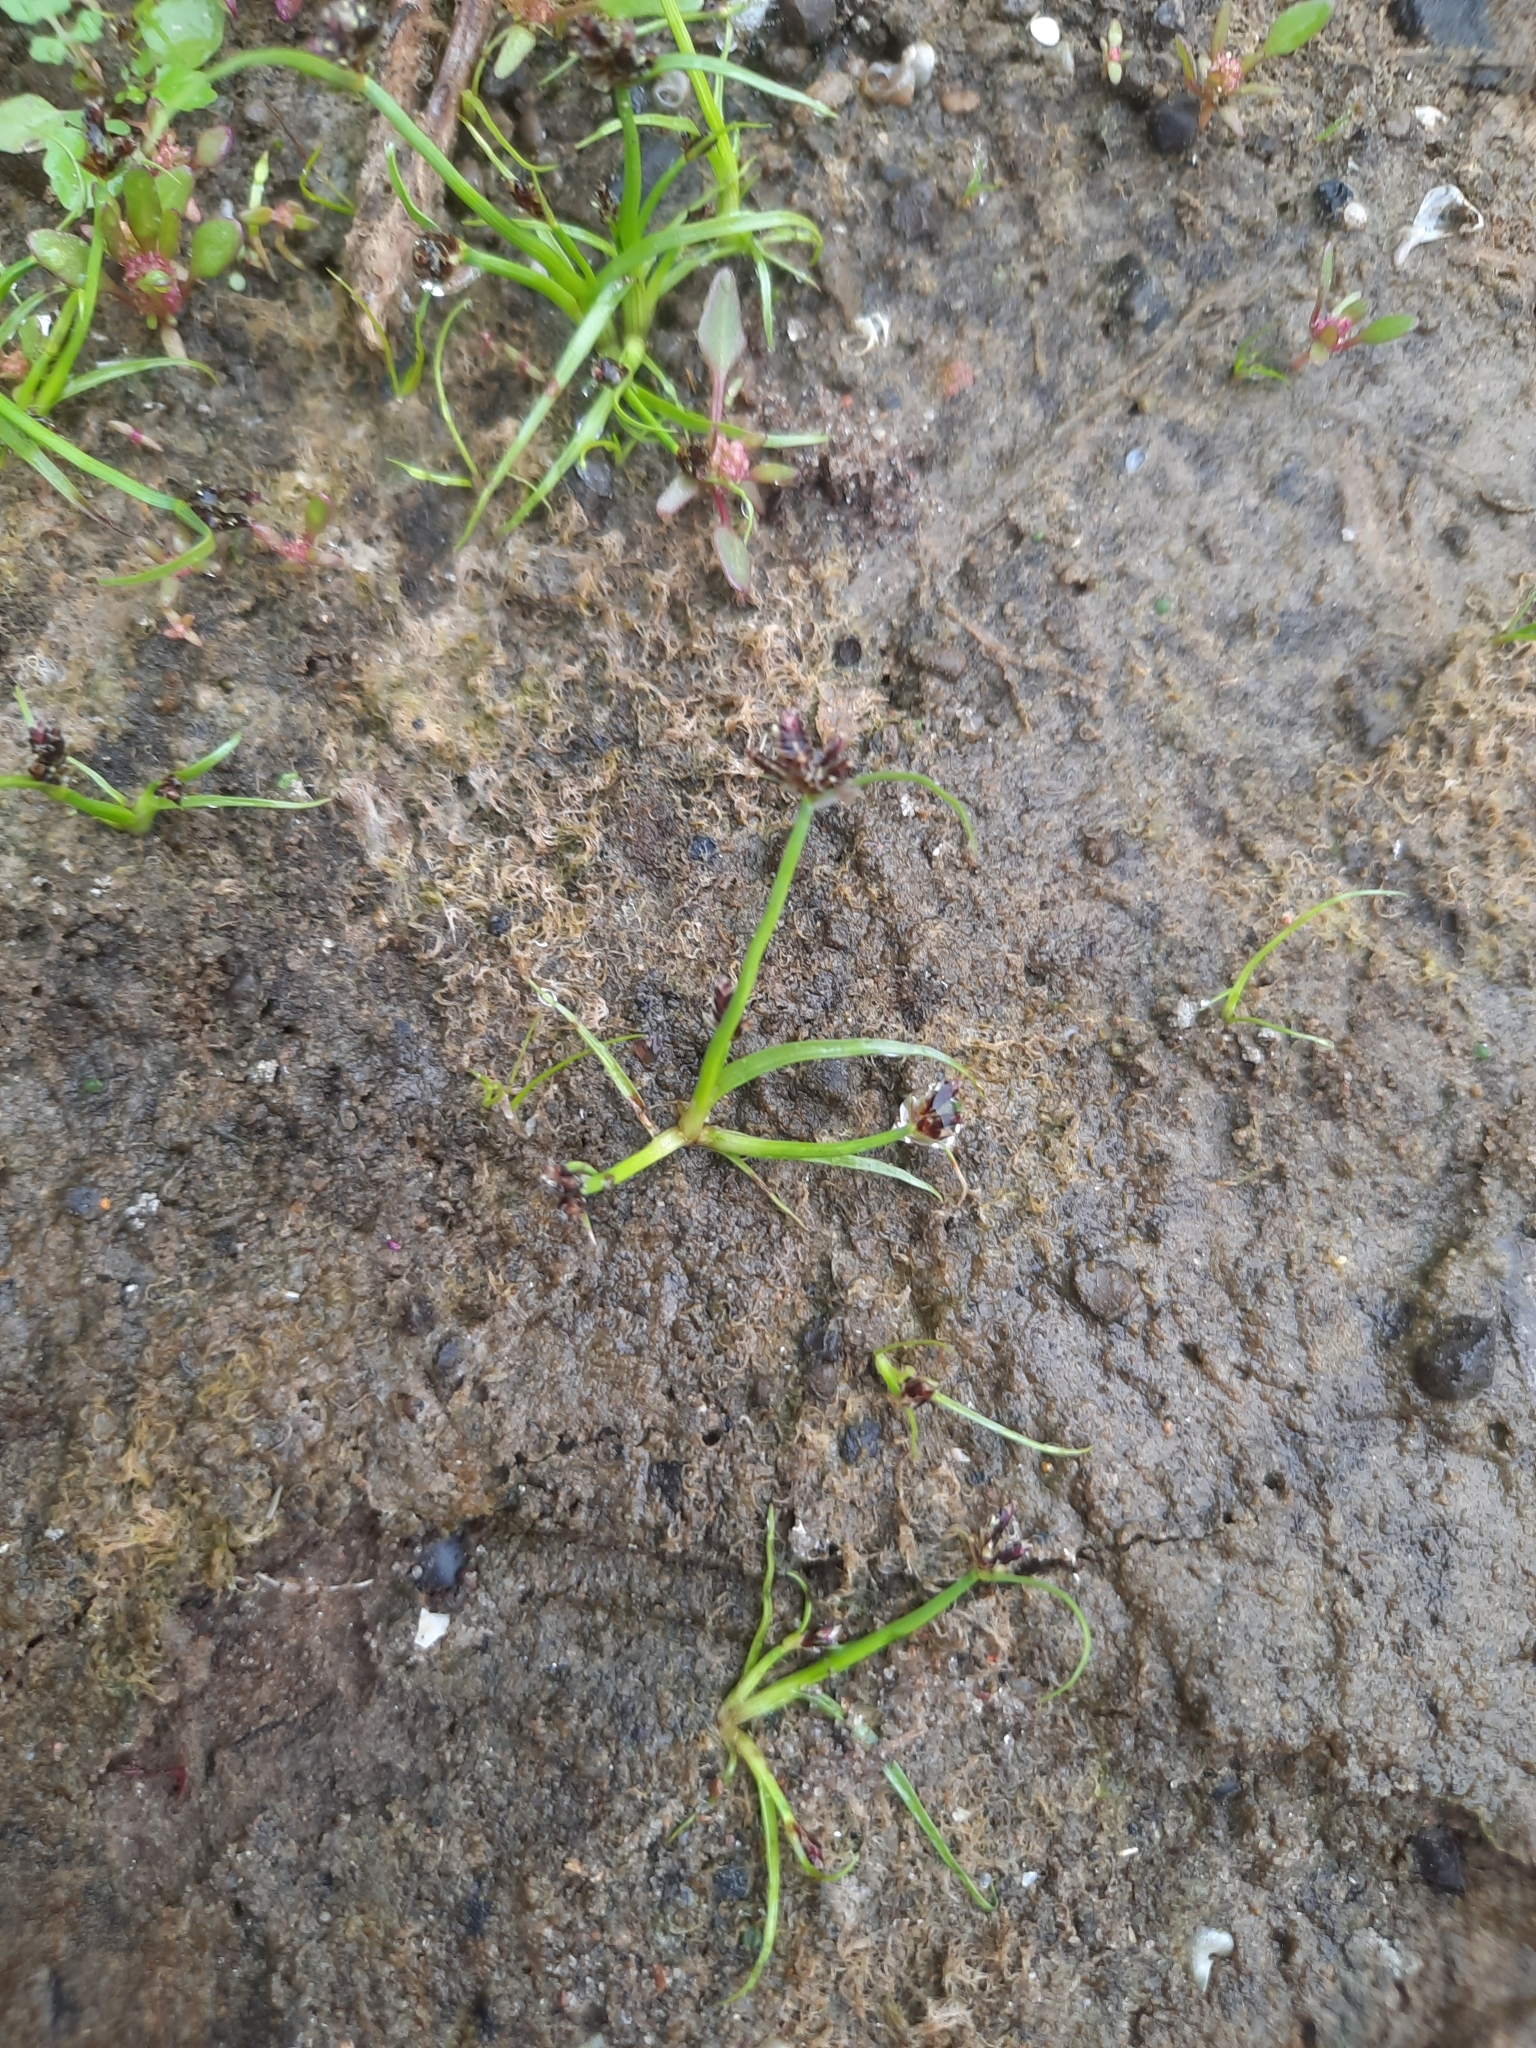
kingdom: Plantae
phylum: Tracheophyta
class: Liliopsida
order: Poales
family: Cyperaceae
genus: Cyperus
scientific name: Cyperus fuscus
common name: Brown galingale
